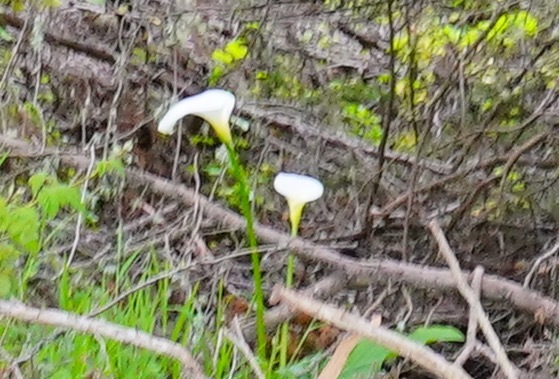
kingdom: Plantae
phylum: Tracheophyta
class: Liliopsida
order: Alismatales
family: Araceae
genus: Zantedeschia
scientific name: Zantedeschia aethiopica
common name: Altar-lily
